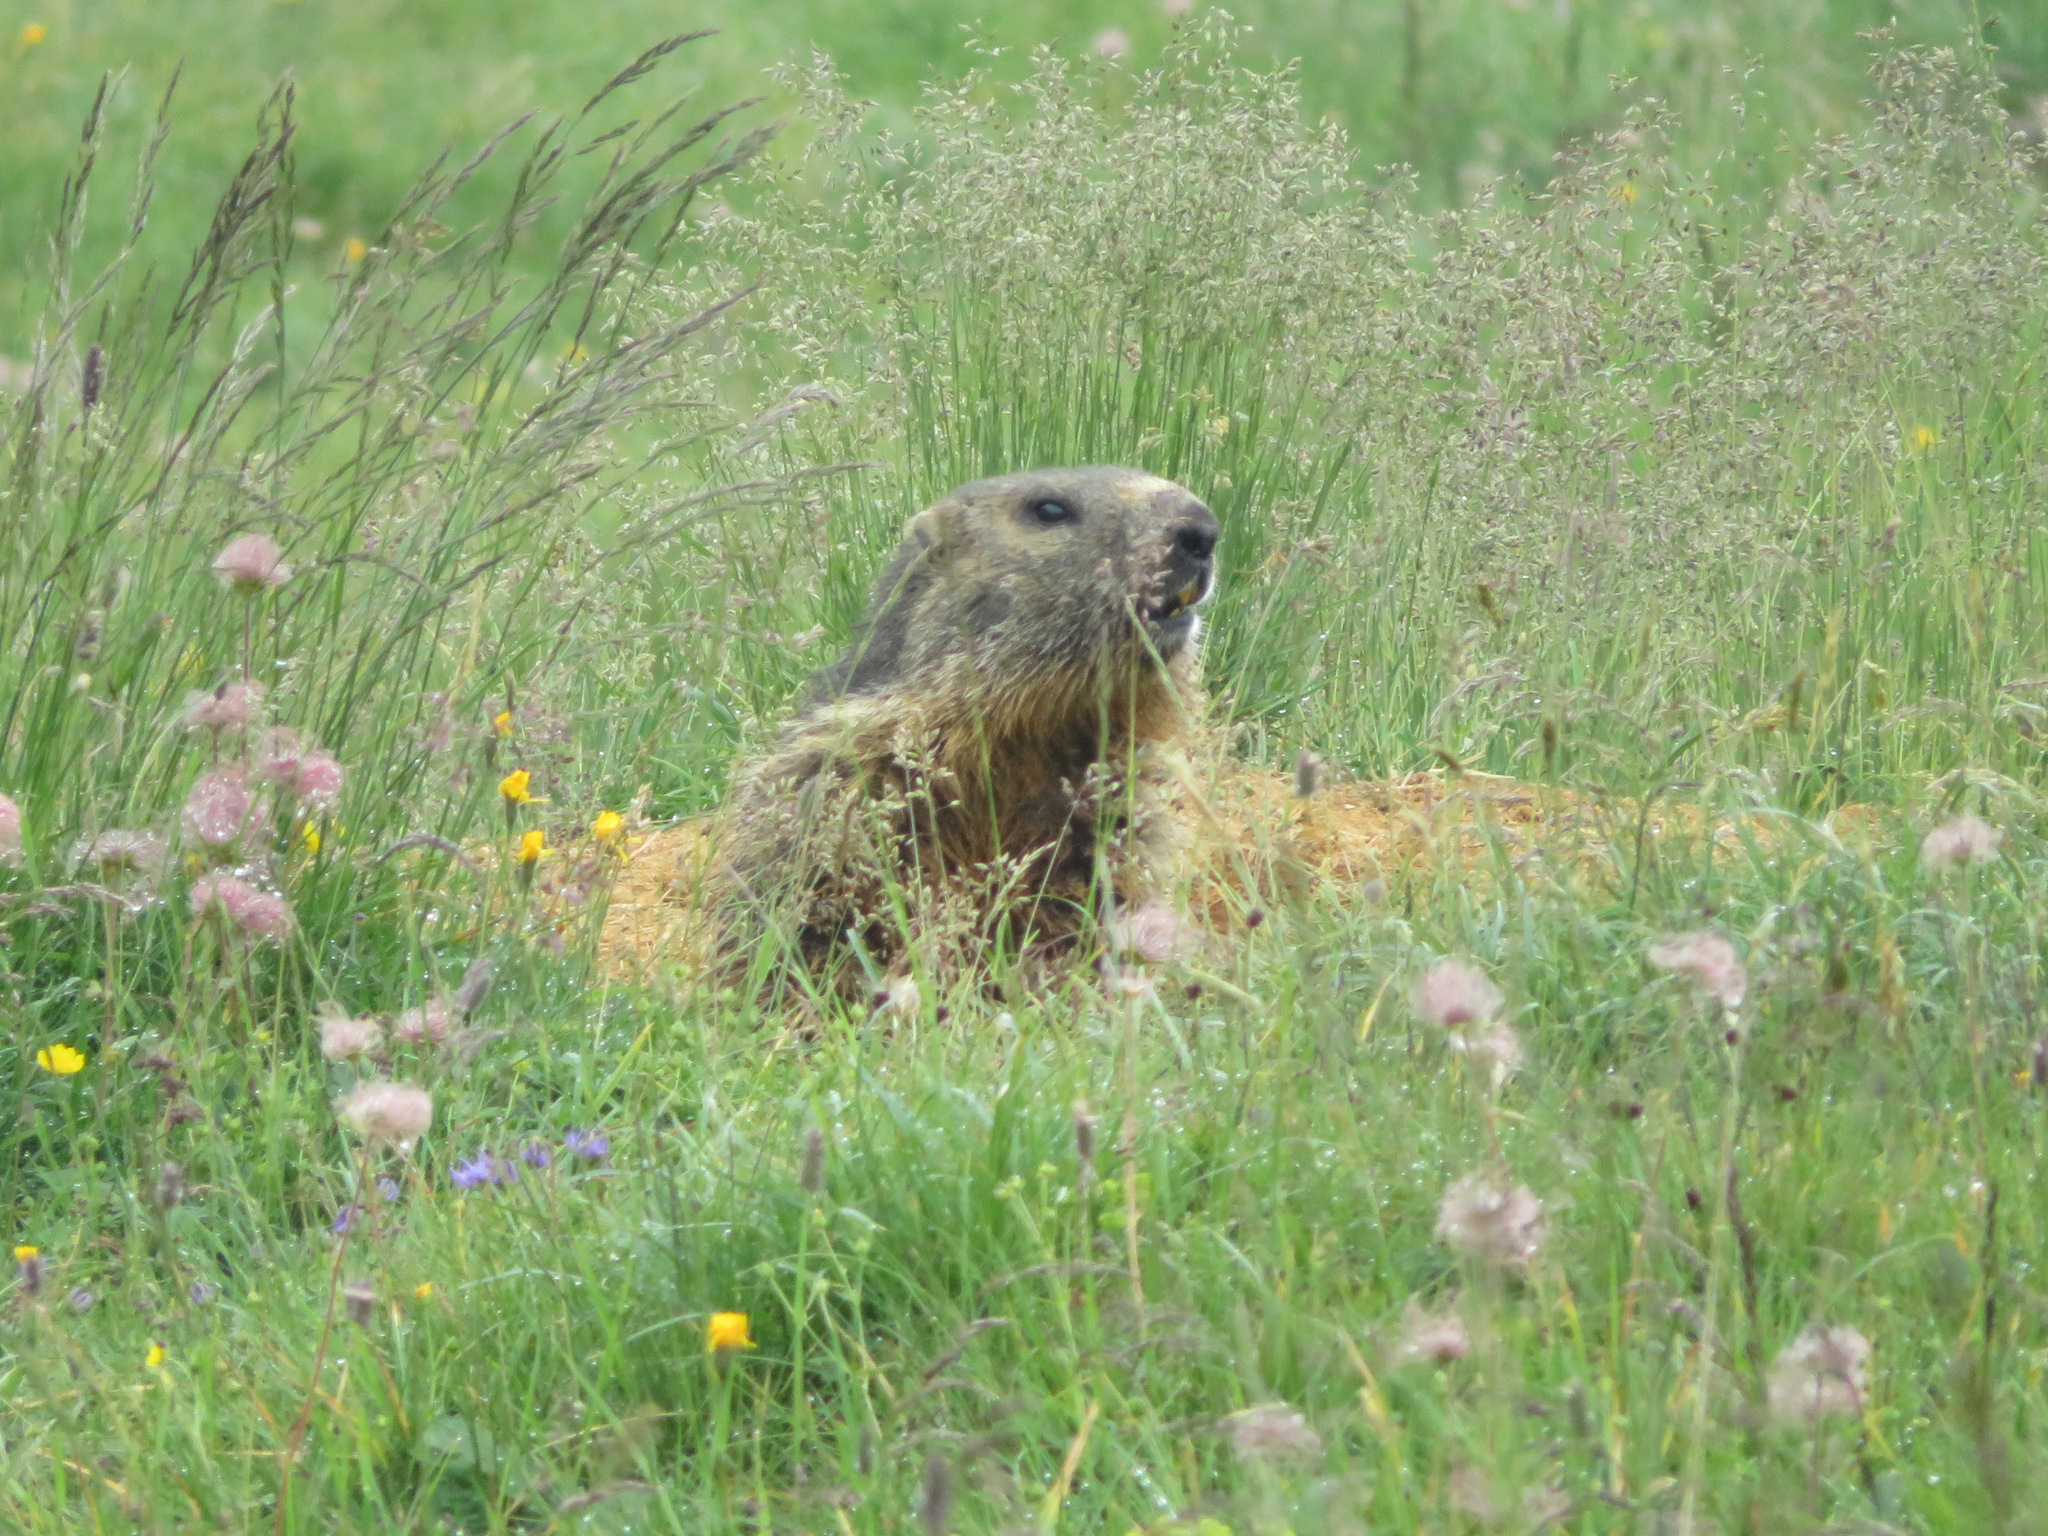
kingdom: Animalia
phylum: Chordata
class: Mammalia
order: Rodentia
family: Sciuridae
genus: Marmota
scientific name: Marmota marmota
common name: Alpine marmot
